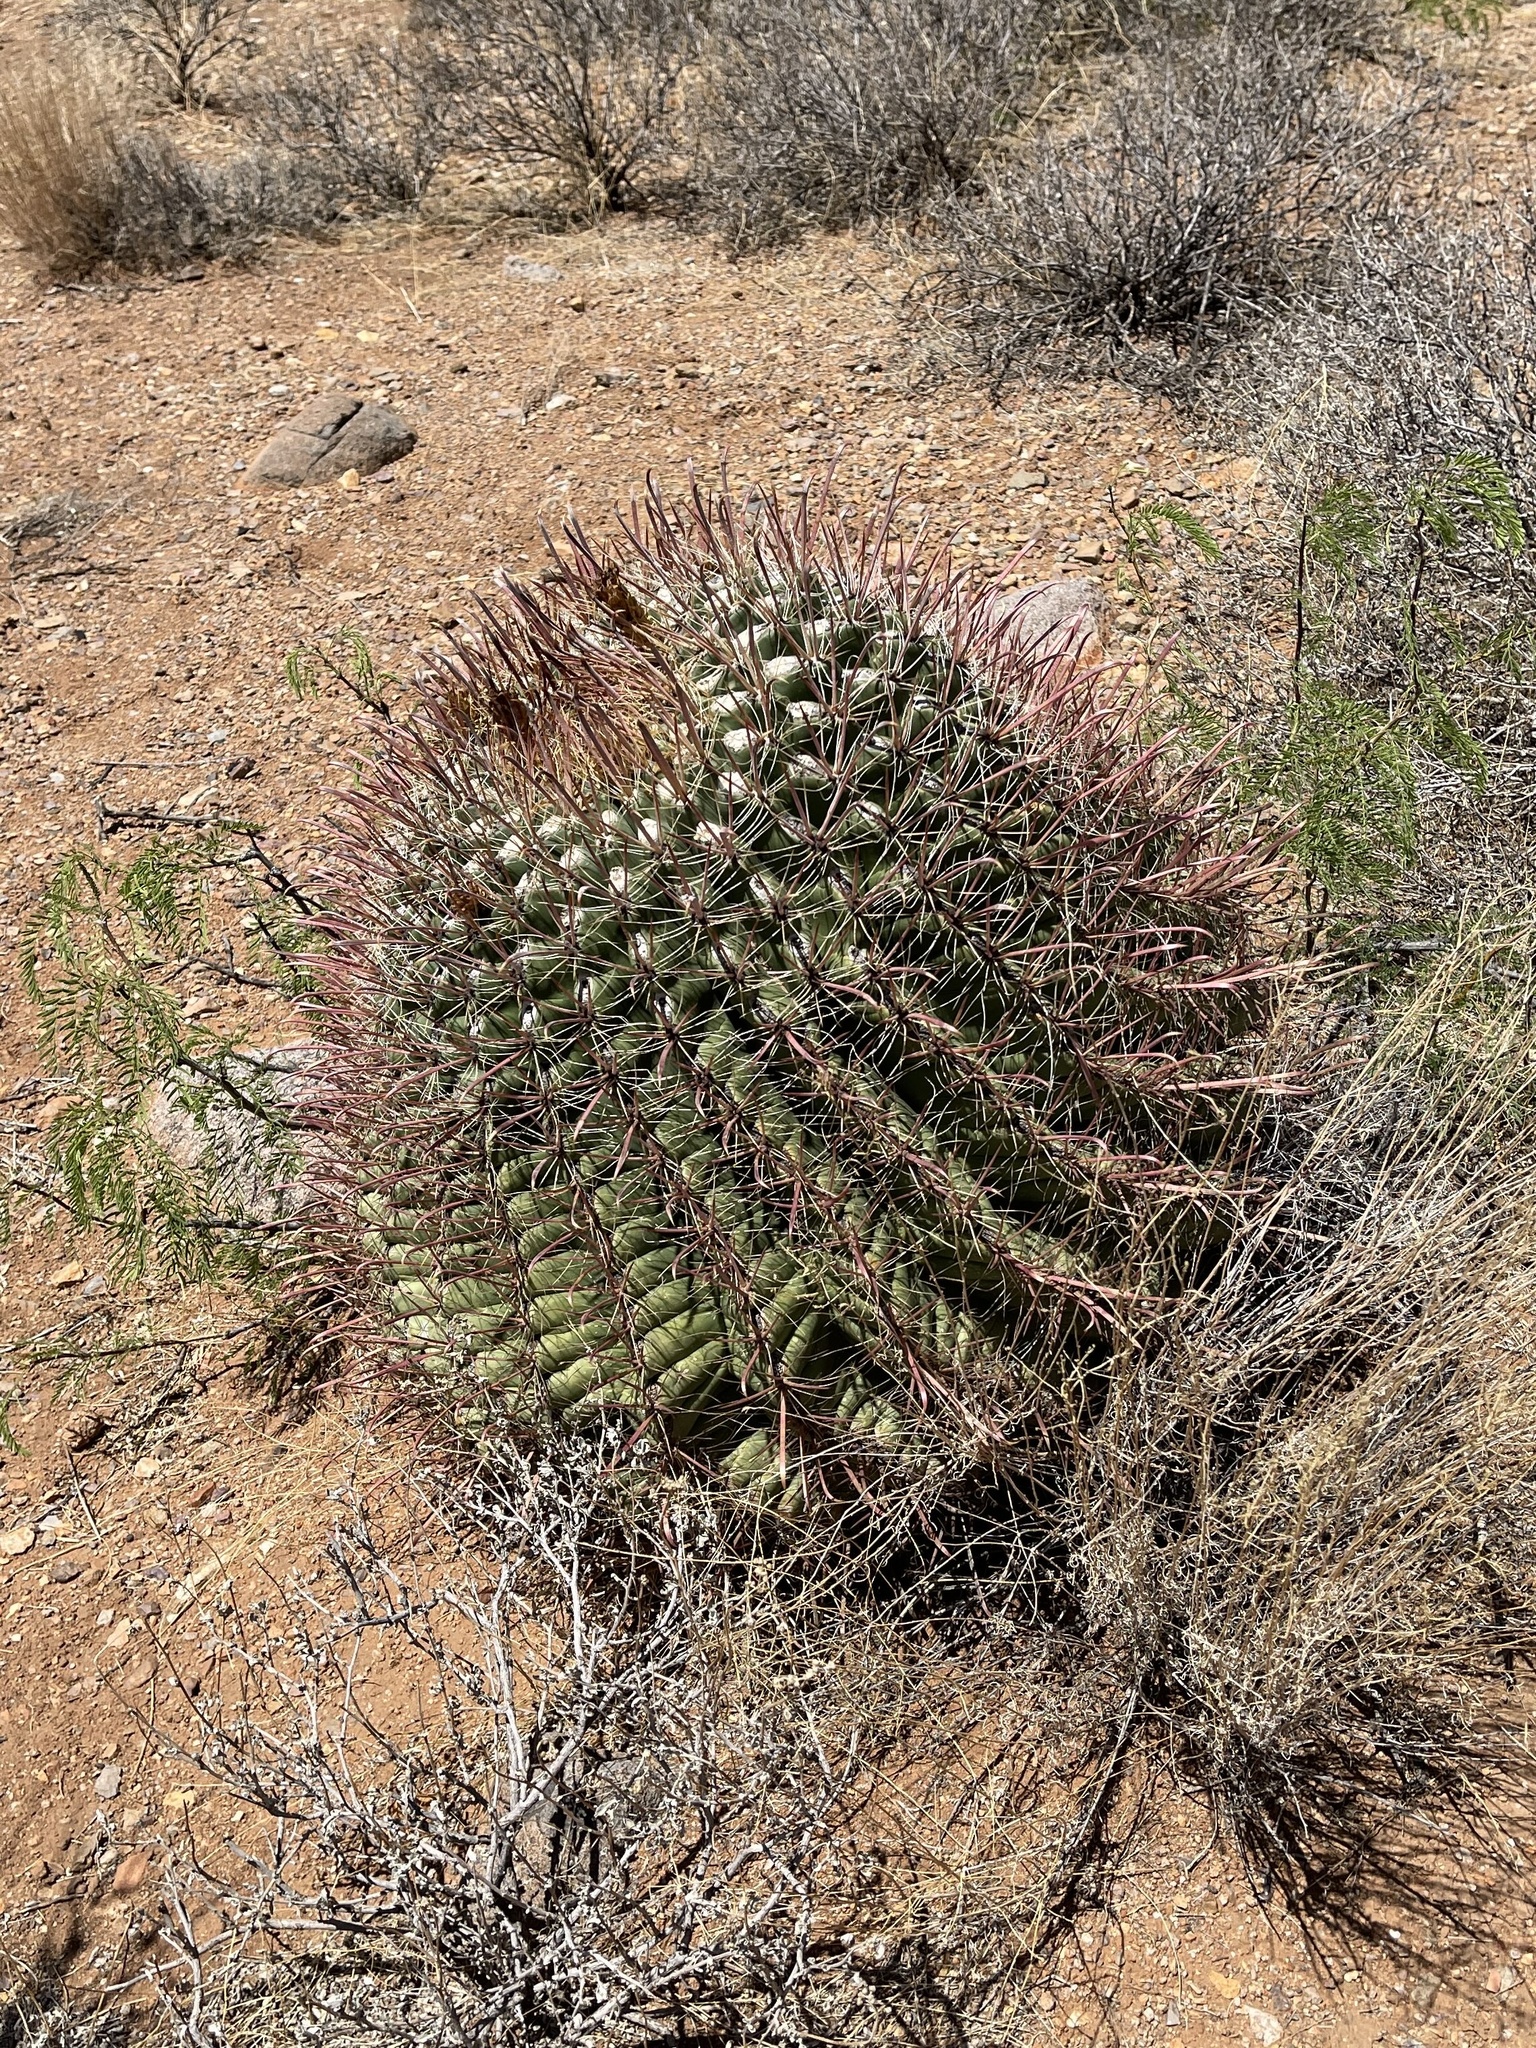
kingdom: Plantae
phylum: Tracheophyta
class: Magnoliopsida
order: Caryophyllales
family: Cactaceae
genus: Ferocactus
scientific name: Ferocactus wislizeni
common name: Candy barrel cactus
